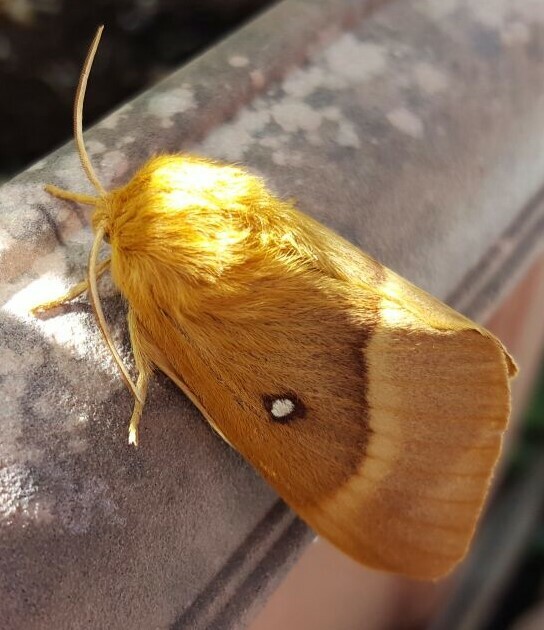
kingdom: Animalia
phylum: Arthropoda
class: Insecta
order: Lepidoptera
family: Lasiocampidae
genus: Lasiocampa
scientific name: Lasiocampa quercus
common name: Oak eggar
